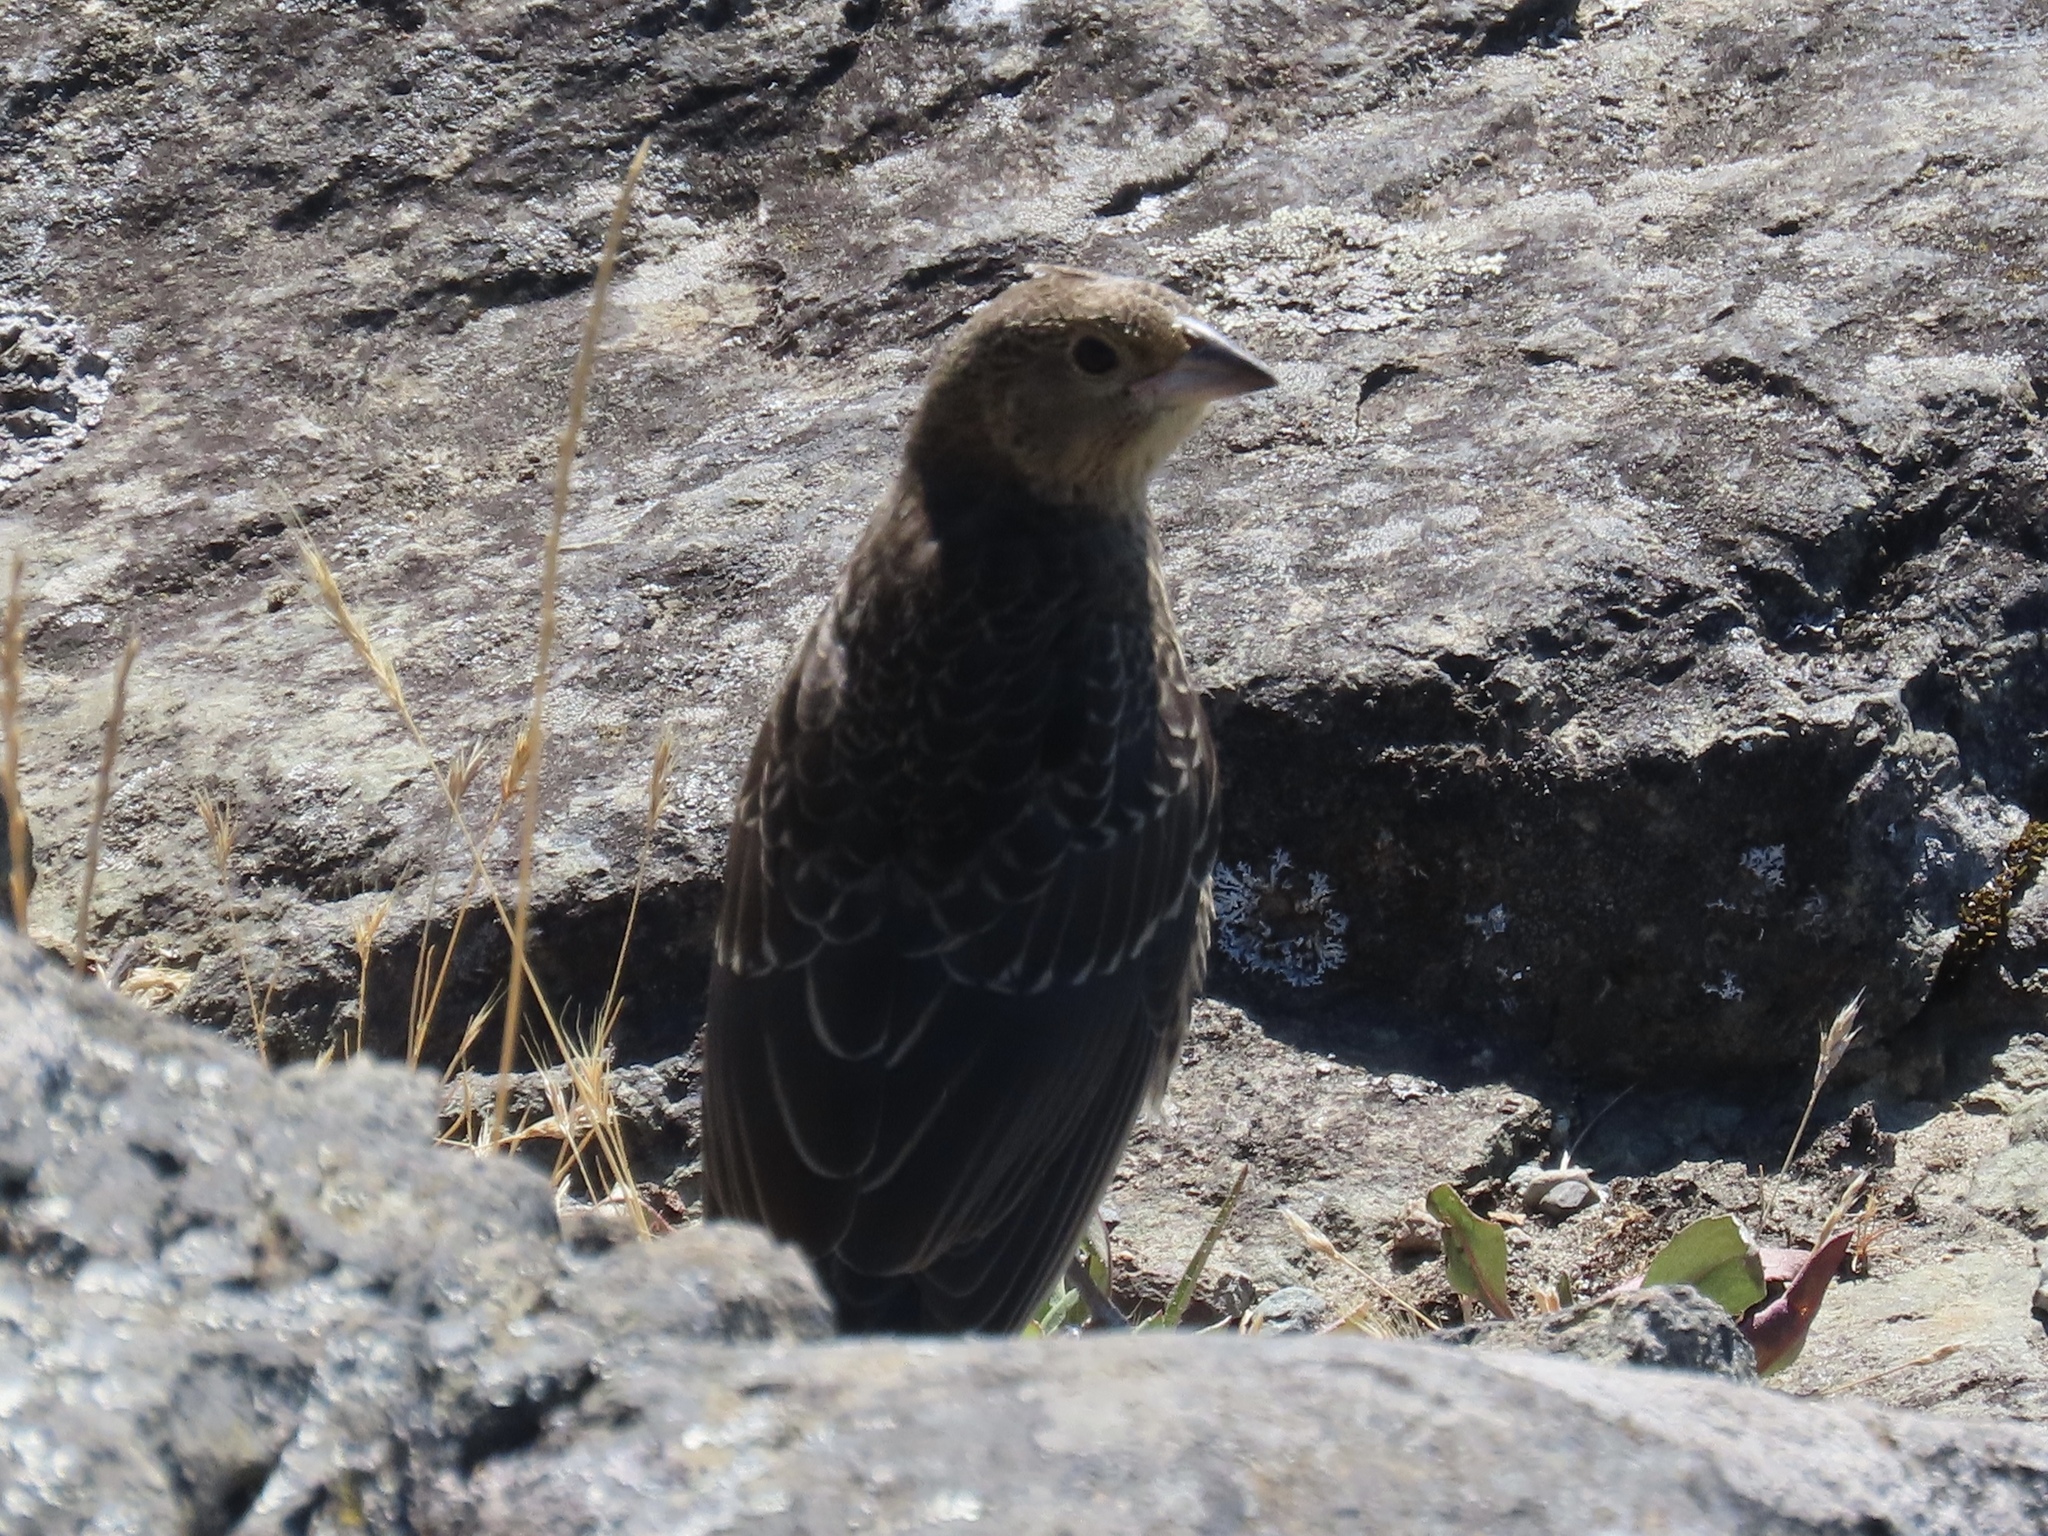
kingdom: Animalia
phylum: Chordata
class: Aves
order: Passeriformes
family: Icteridae
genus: Molothrus
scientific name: Molothrus ater
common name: Brown-headed cowbird
